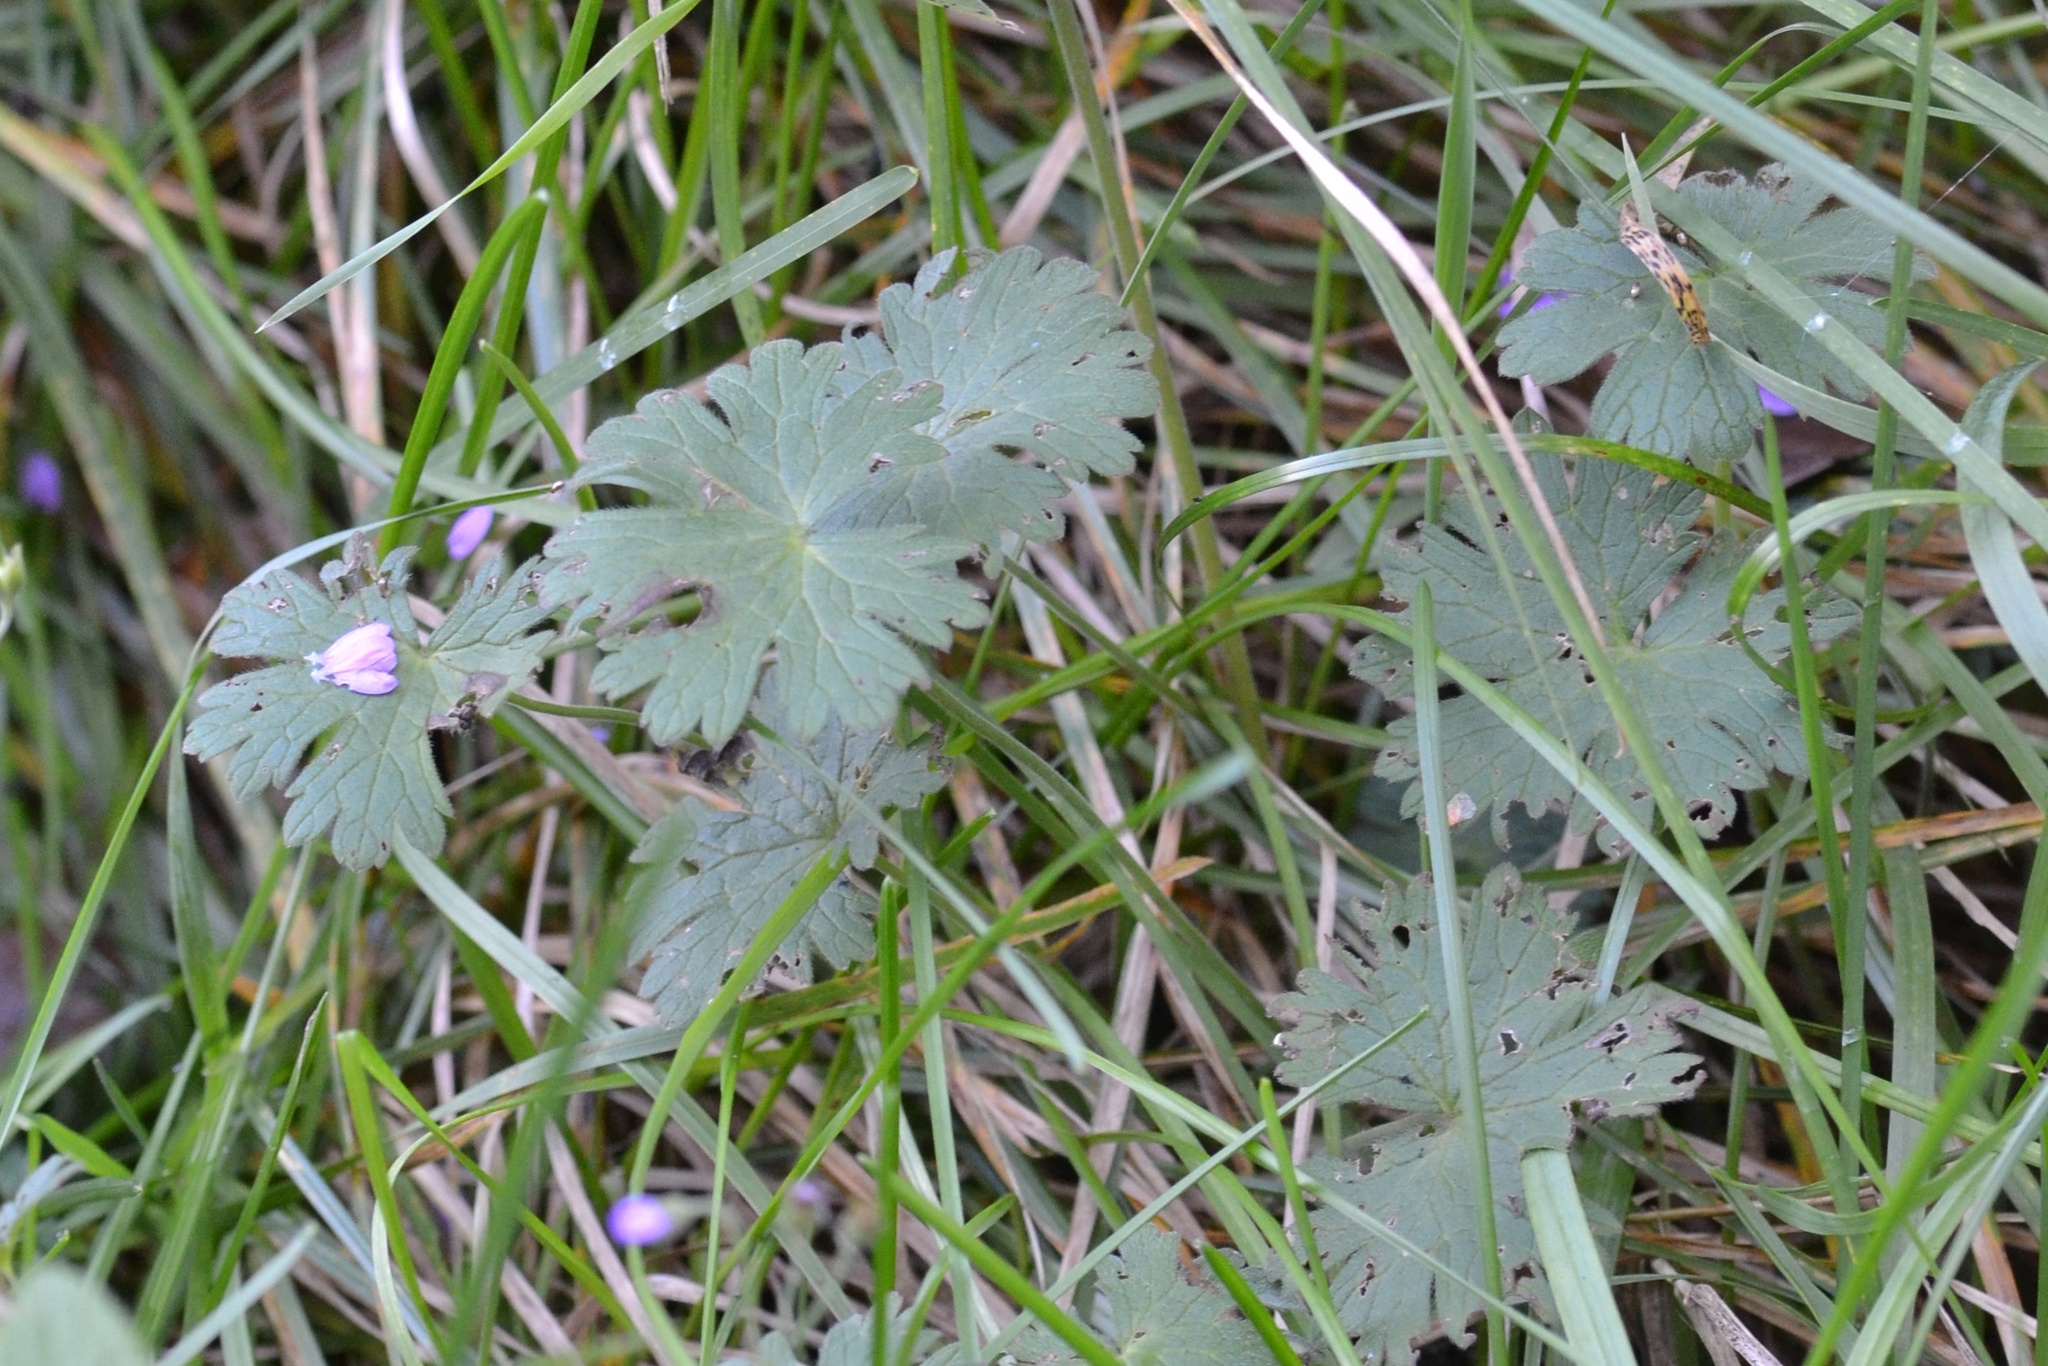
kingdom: Plantae
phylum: Tracheophyta
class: Magnoliopsida
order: Geraniales
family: Geraniaceae
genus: Geranium
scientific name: Geranium pyrenaicum
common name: Hedgerow crane's-bill
